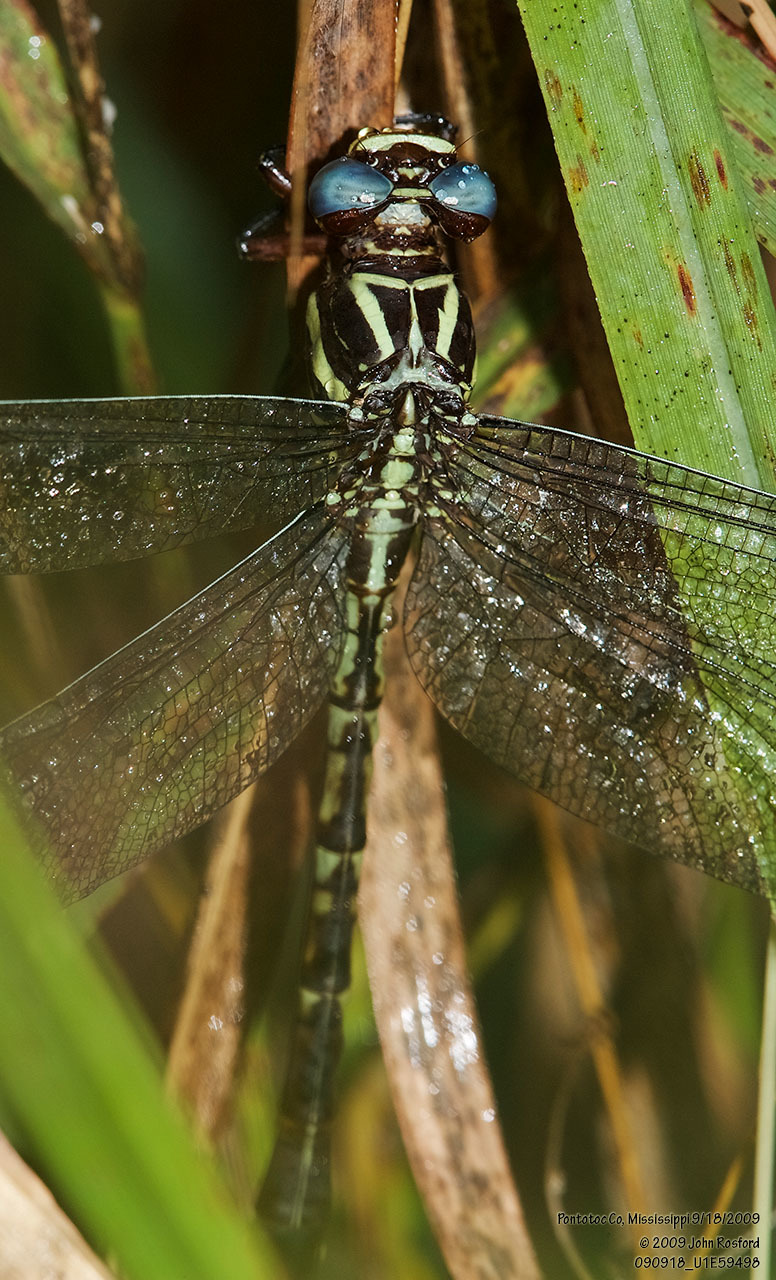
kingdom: Animalia
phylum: Arthropoda
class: Insecta
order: Odonata
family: Gomphidae
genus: Aphylla
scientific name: Aphylla williamsoni
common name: Two-striped forceptail
